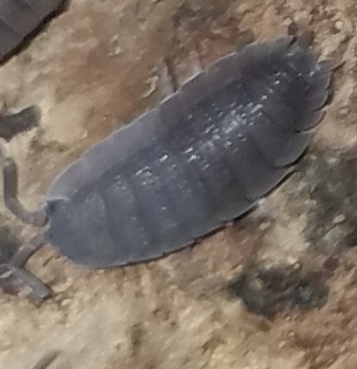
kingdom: Animalia
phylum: Arthropoda
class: Malacostraca
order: Isopoda
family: Porcellionidae
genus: Porcellio
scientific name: Porcellio scaber
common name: Common rough woodlouse
